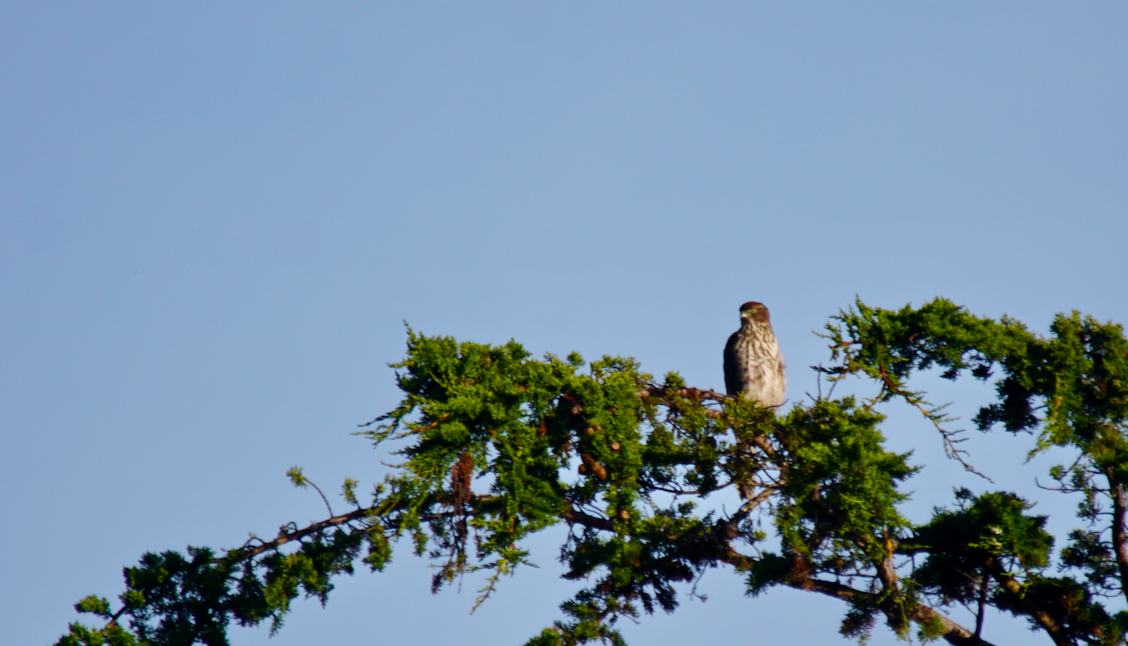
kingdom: Animalia
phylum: Chordata
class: Aves
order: Accipitriformes
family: Accipitridae
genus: Accipiter
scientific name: Accipiter
